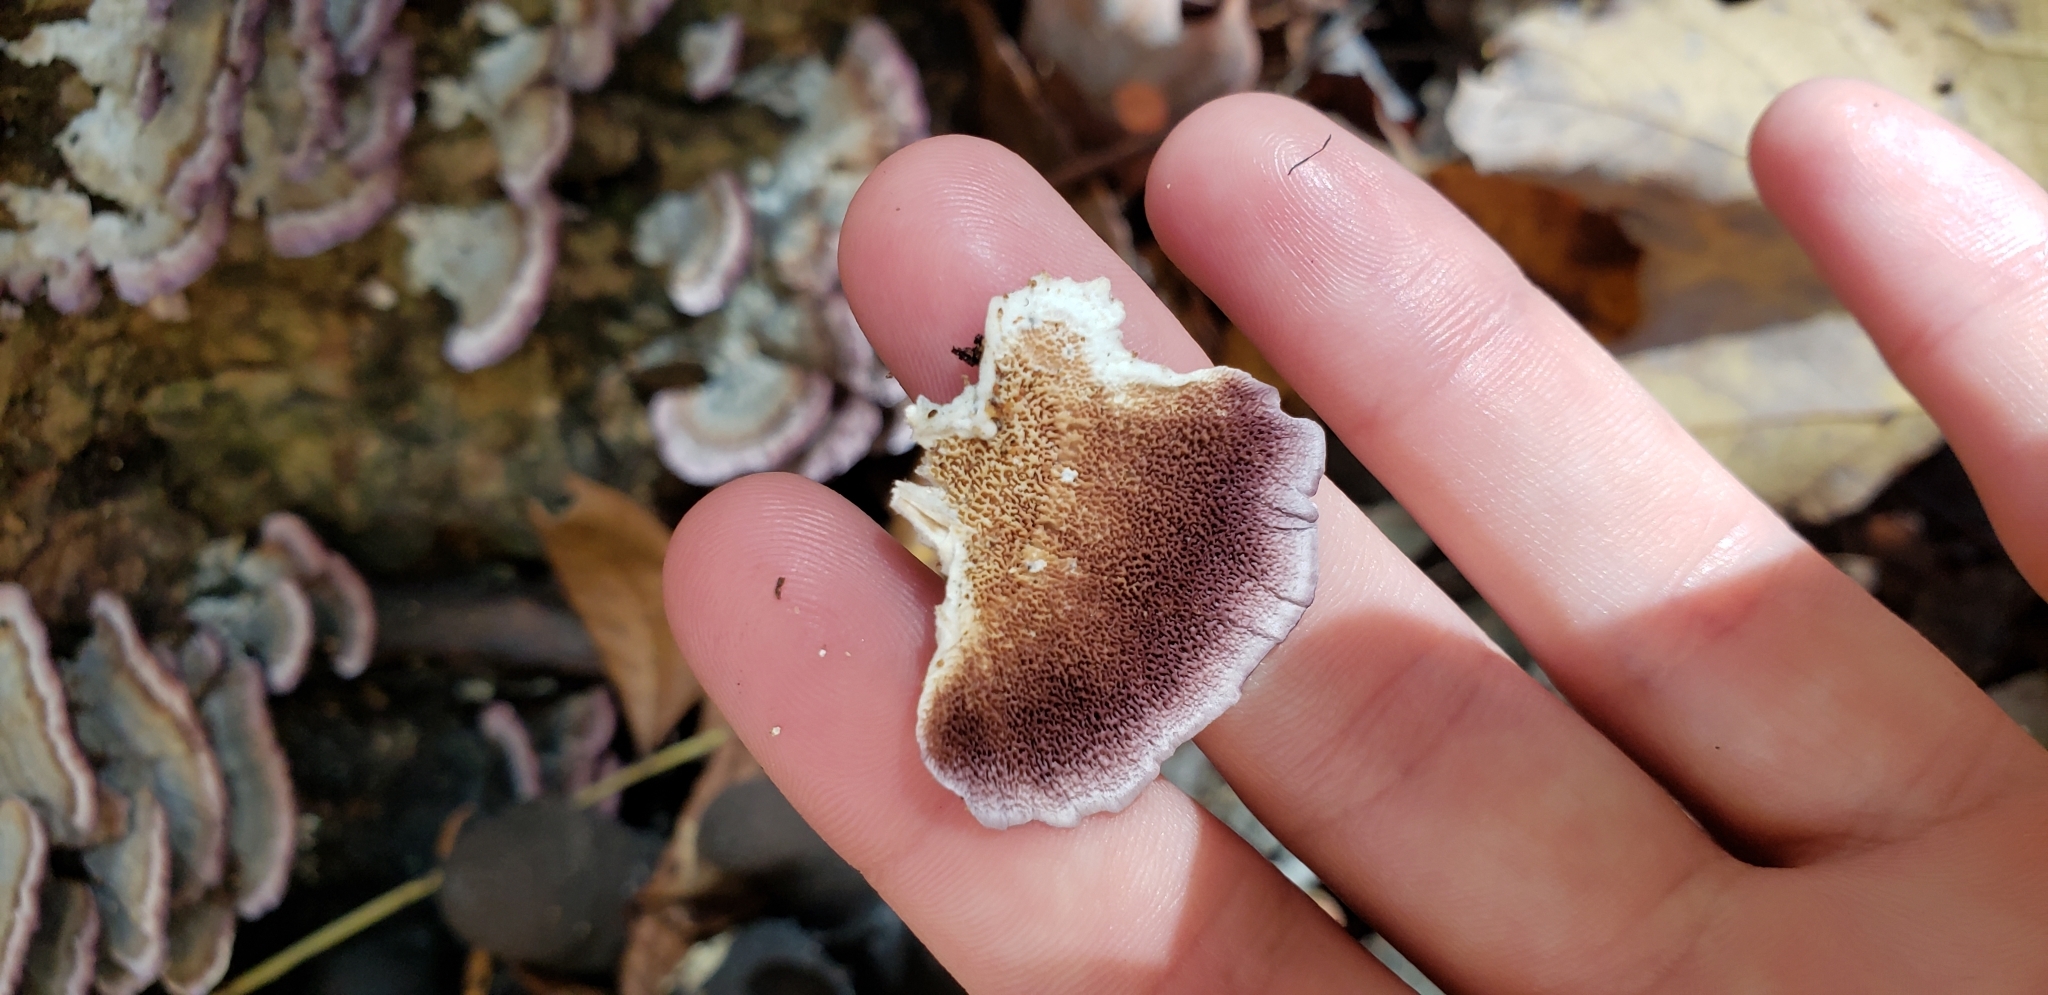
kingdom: Fungi
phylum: Basidiomycota
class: Agaricomycetes
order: Hymenochaetales
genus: Trichaptum
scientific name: Trichaptum biforme
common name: Violet-toothed polypore
